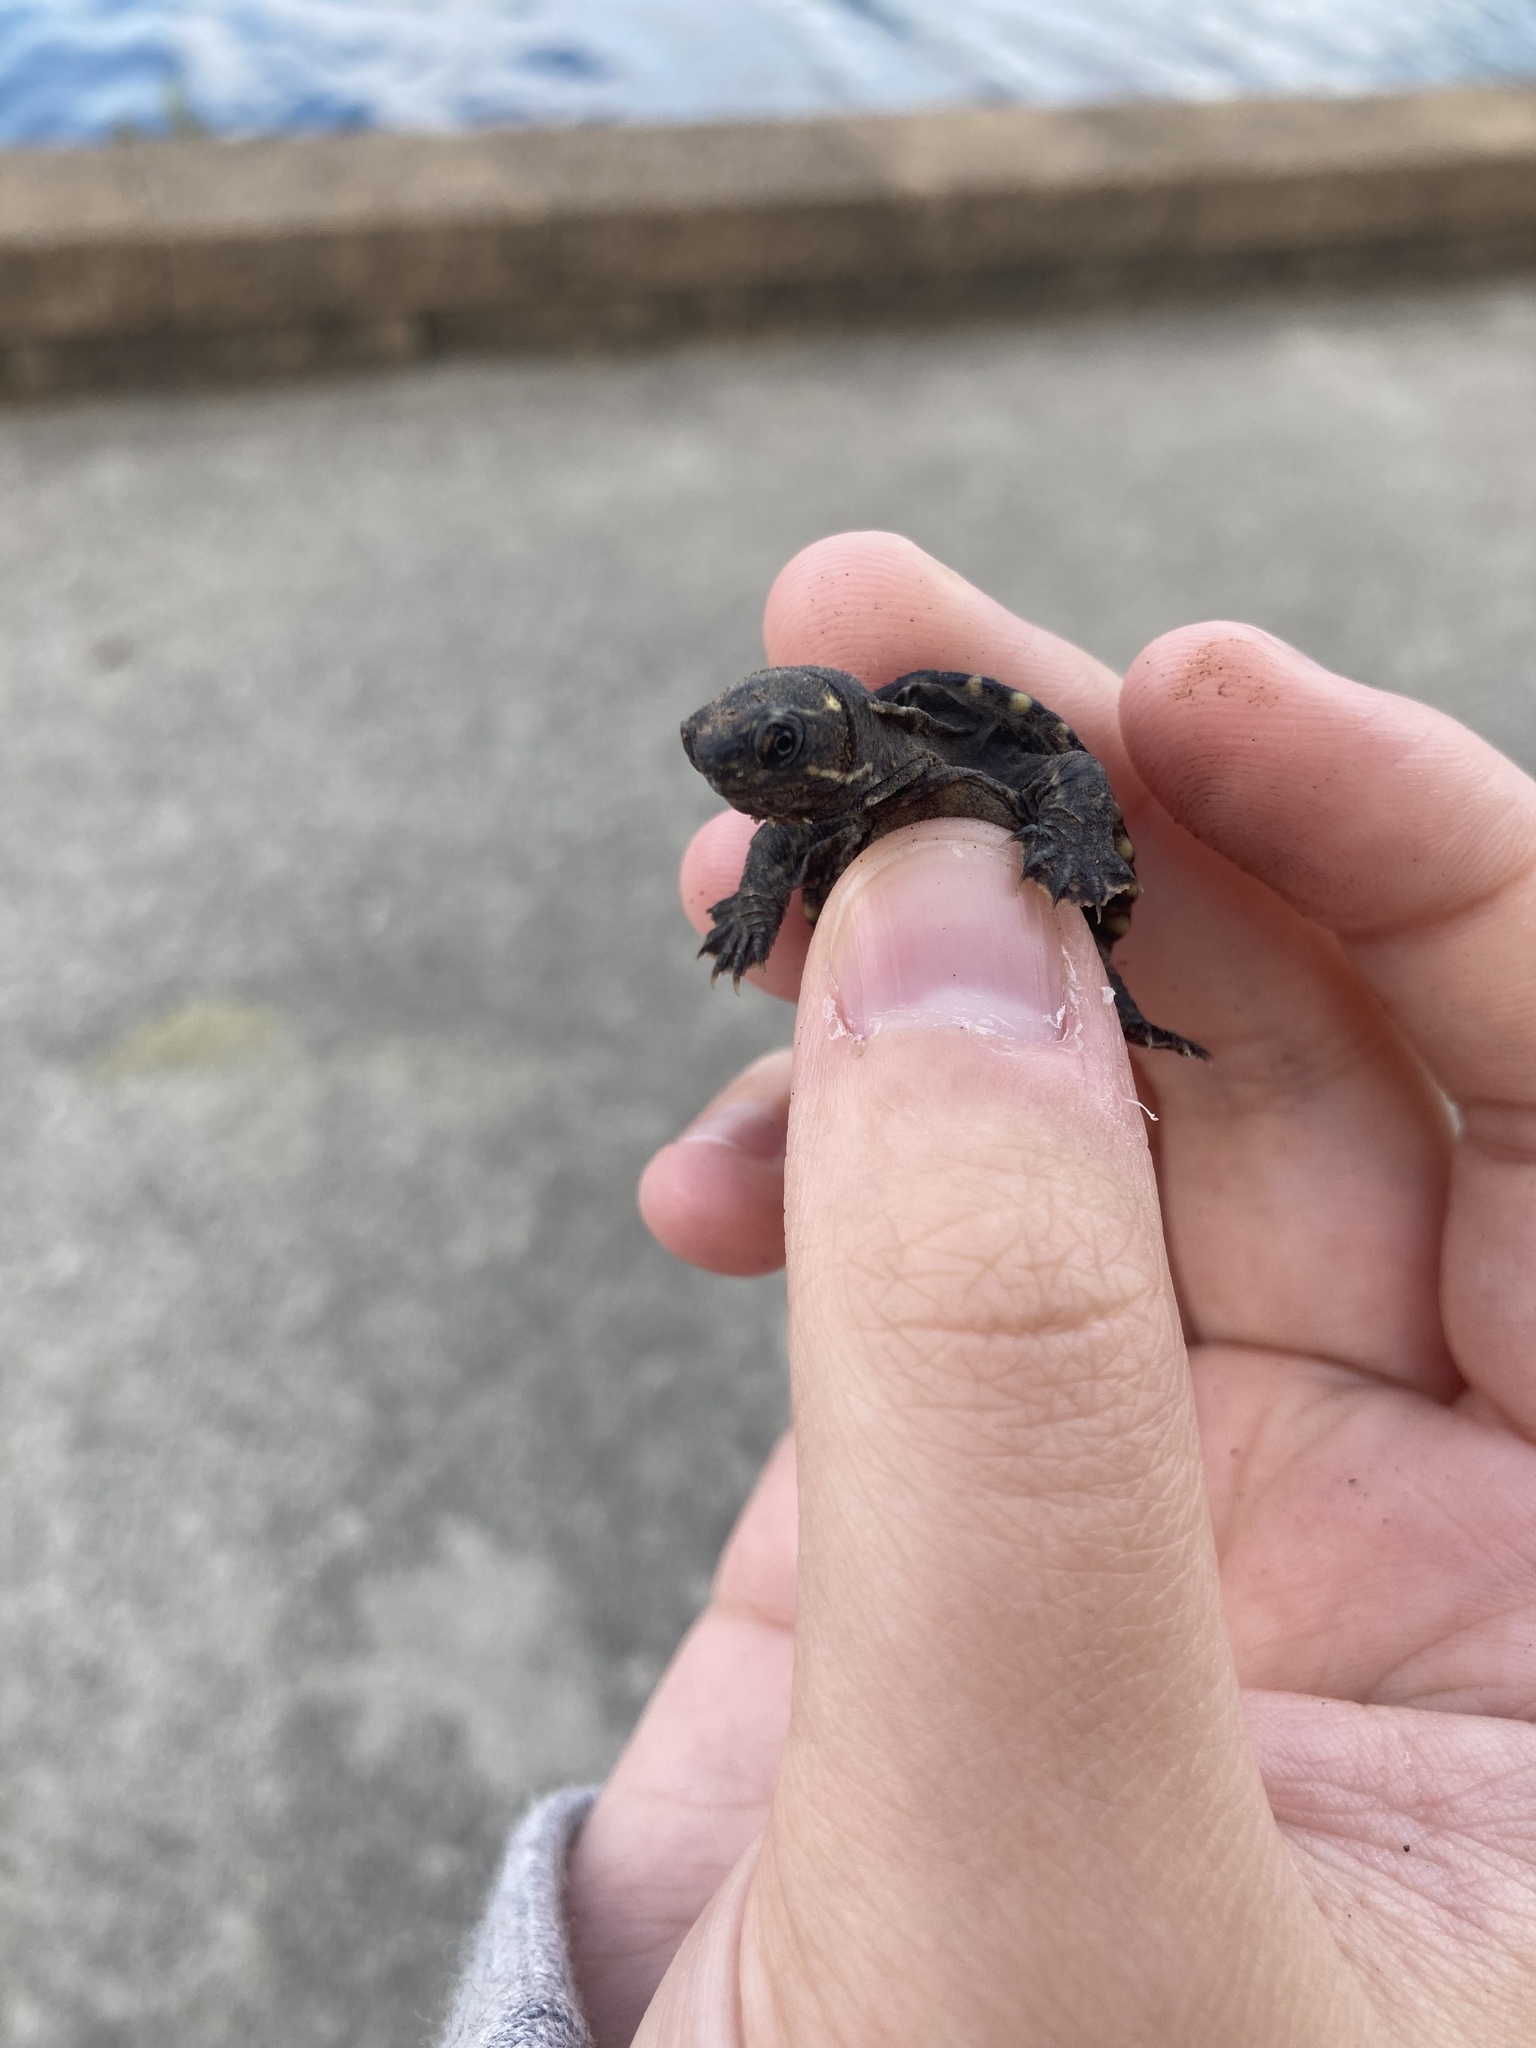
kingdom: Animalia
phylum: Chordata
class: Testudines
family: Kinosternidae
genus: Sternotherus
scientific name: Sternotherus odoratus
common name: Common musk turtle
